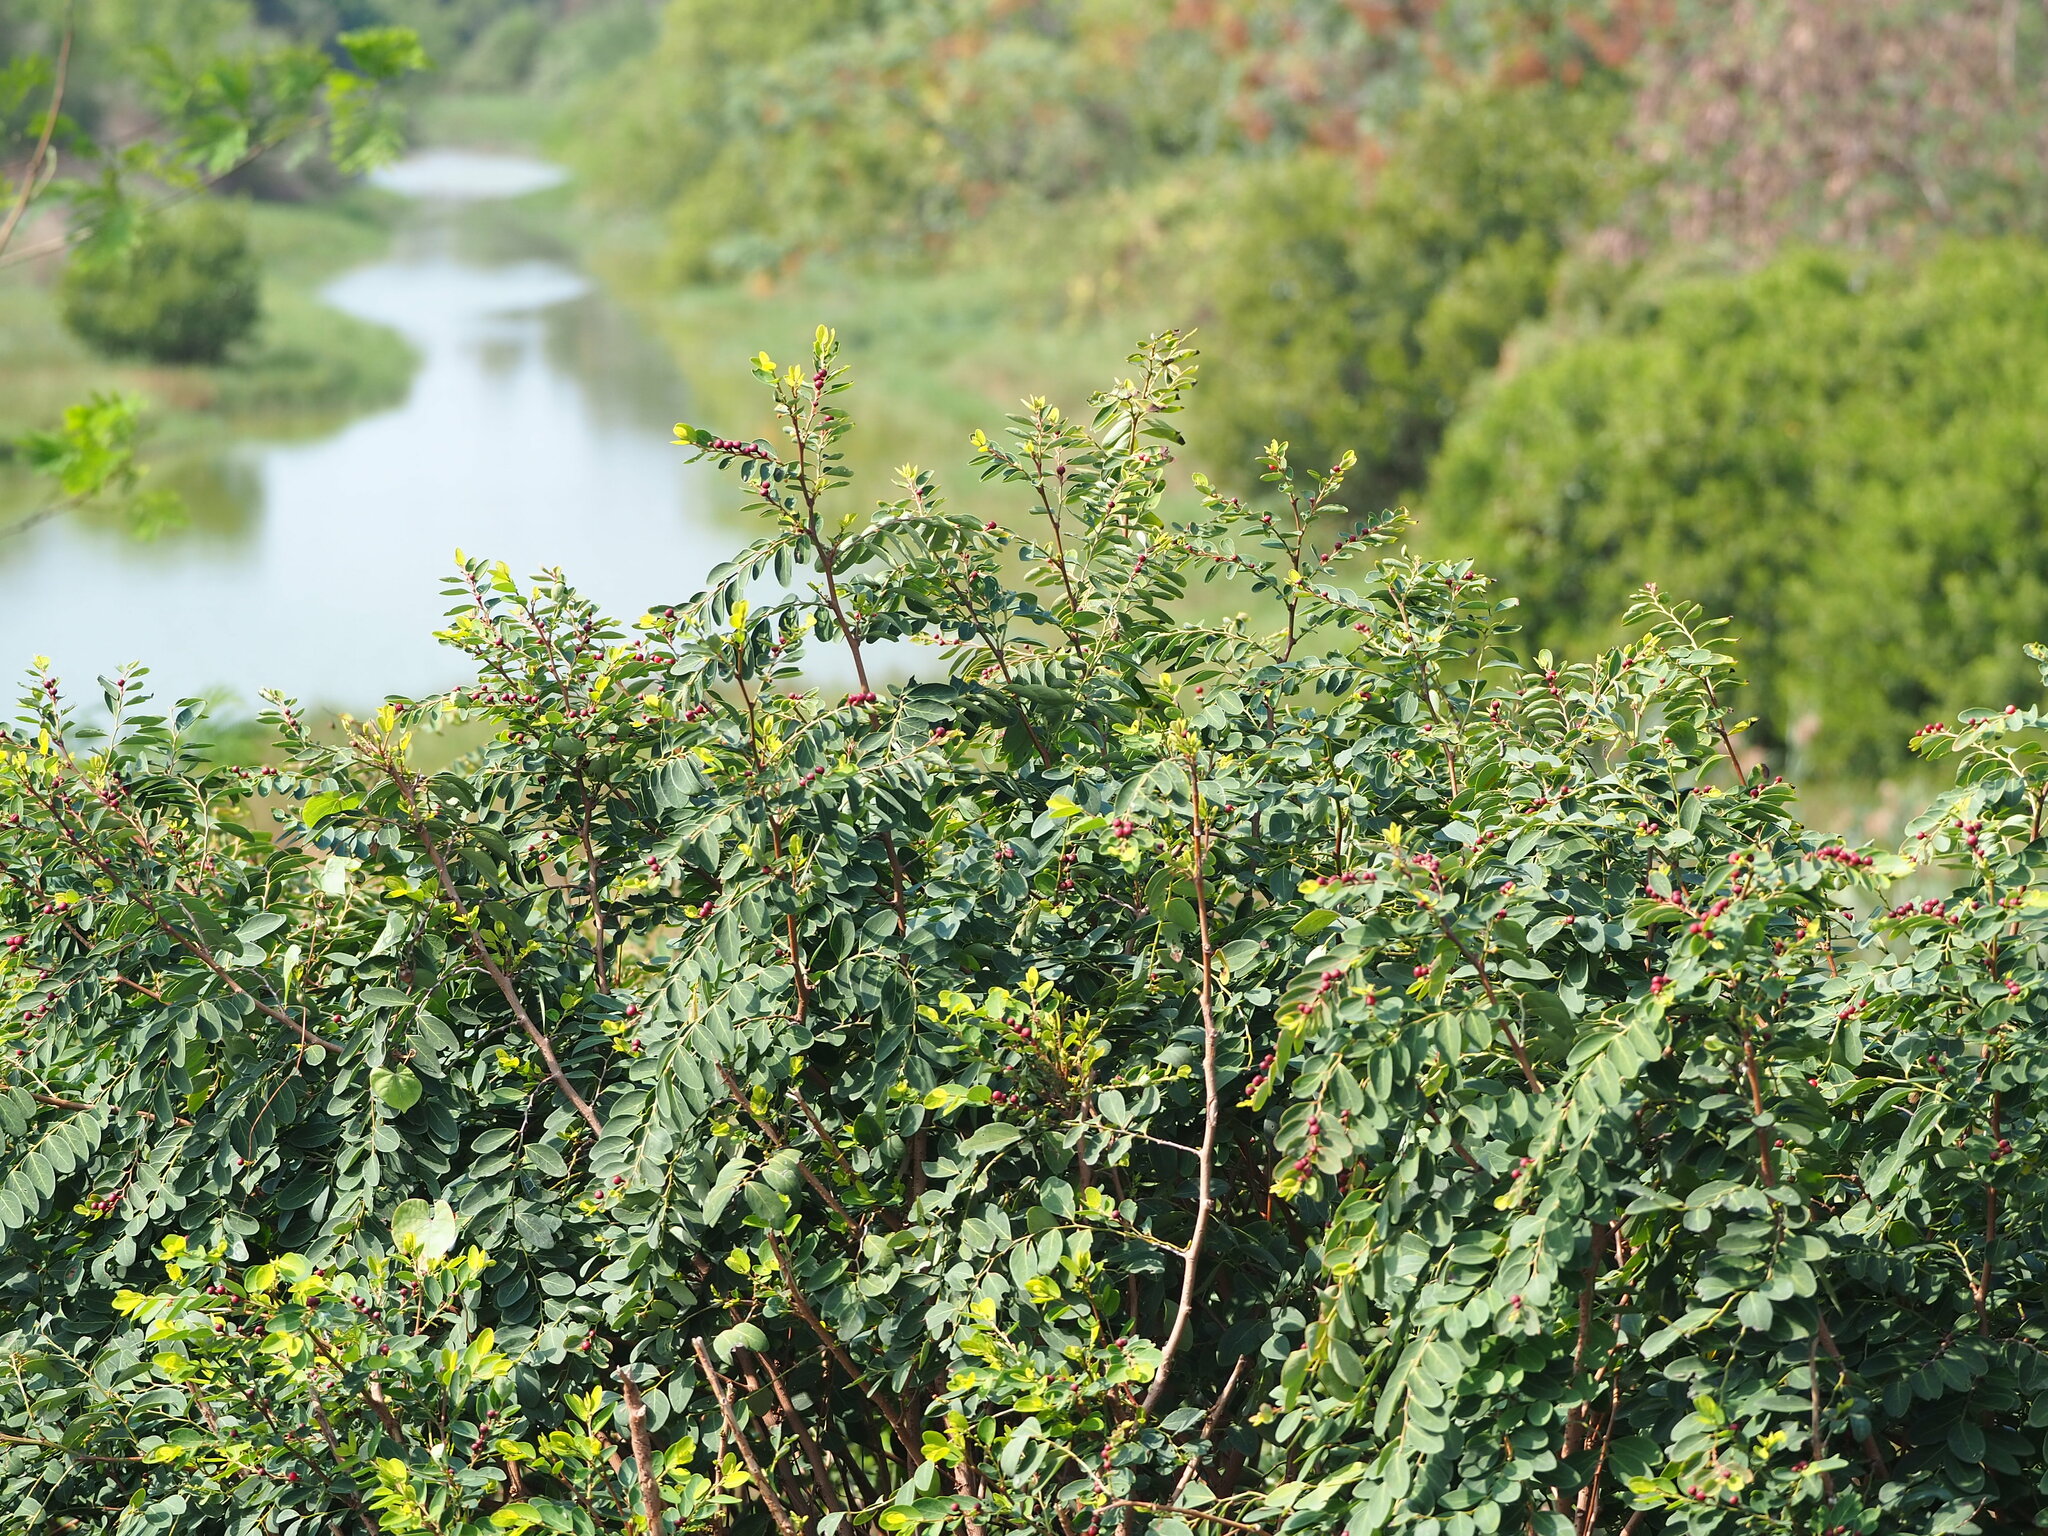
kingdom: Plantae
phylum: Tracheophyta
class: Magnoliopsida
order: Malpighiales
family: Phyllanthaceae
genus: Breynia
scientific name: Breynia vitis-idaea
